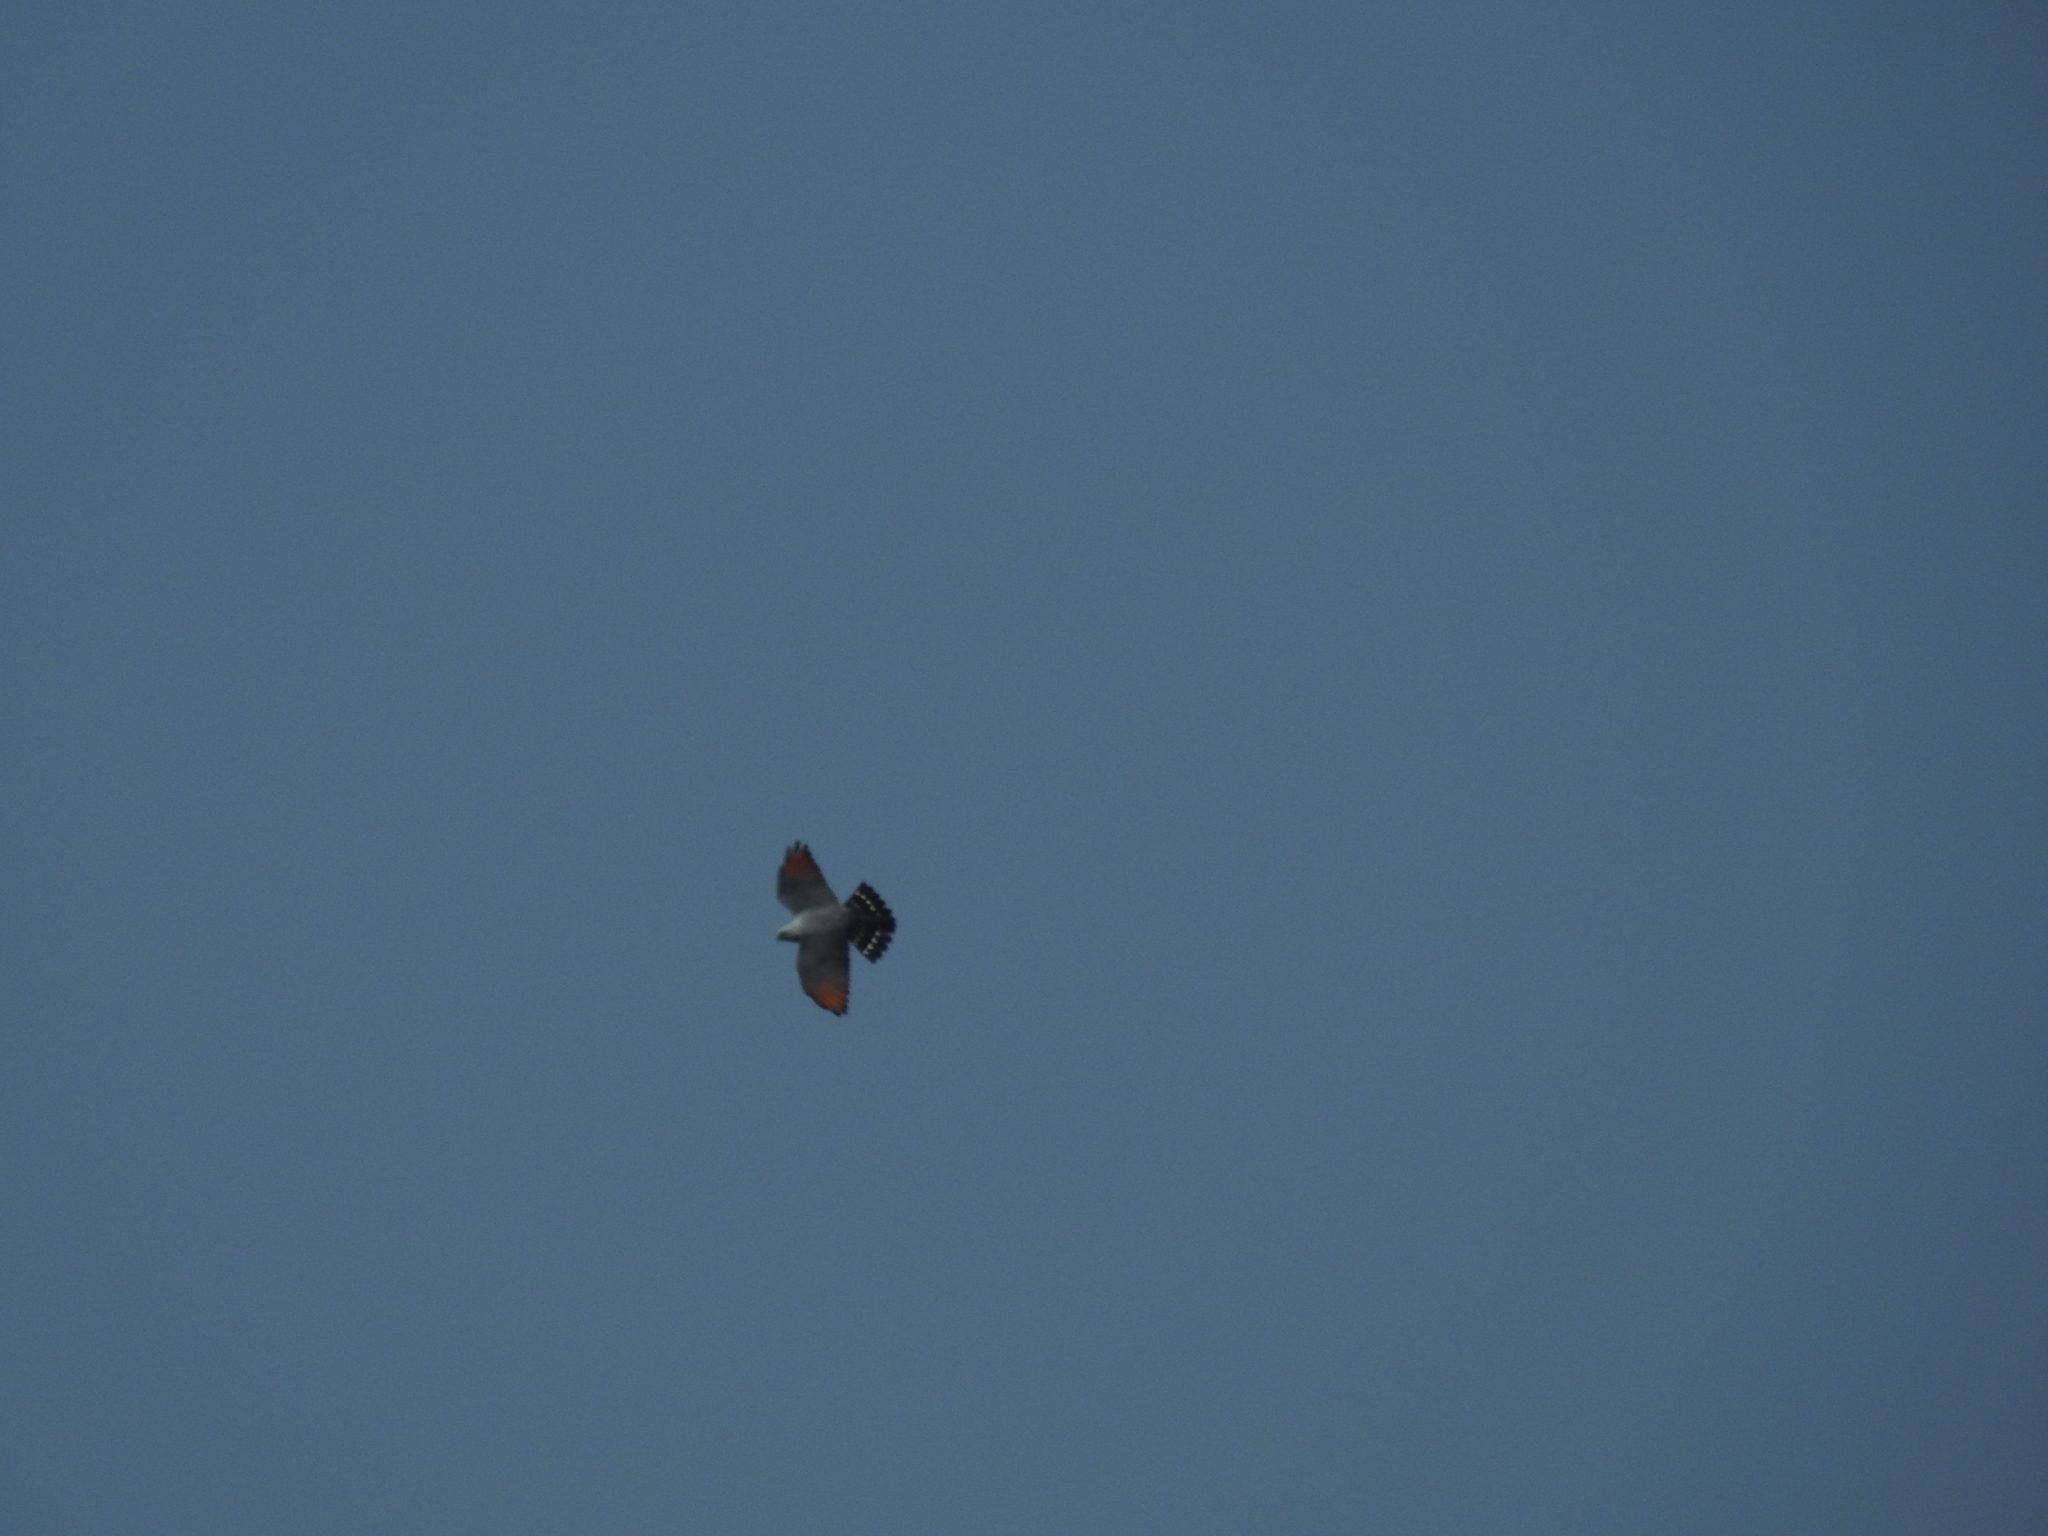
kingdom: Animalia
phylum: Chordata
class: Aves
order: Accipitriformes
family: Accipitridae
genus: Ictinia
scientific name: Ictinia plumbea
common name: Plumbeous kite
